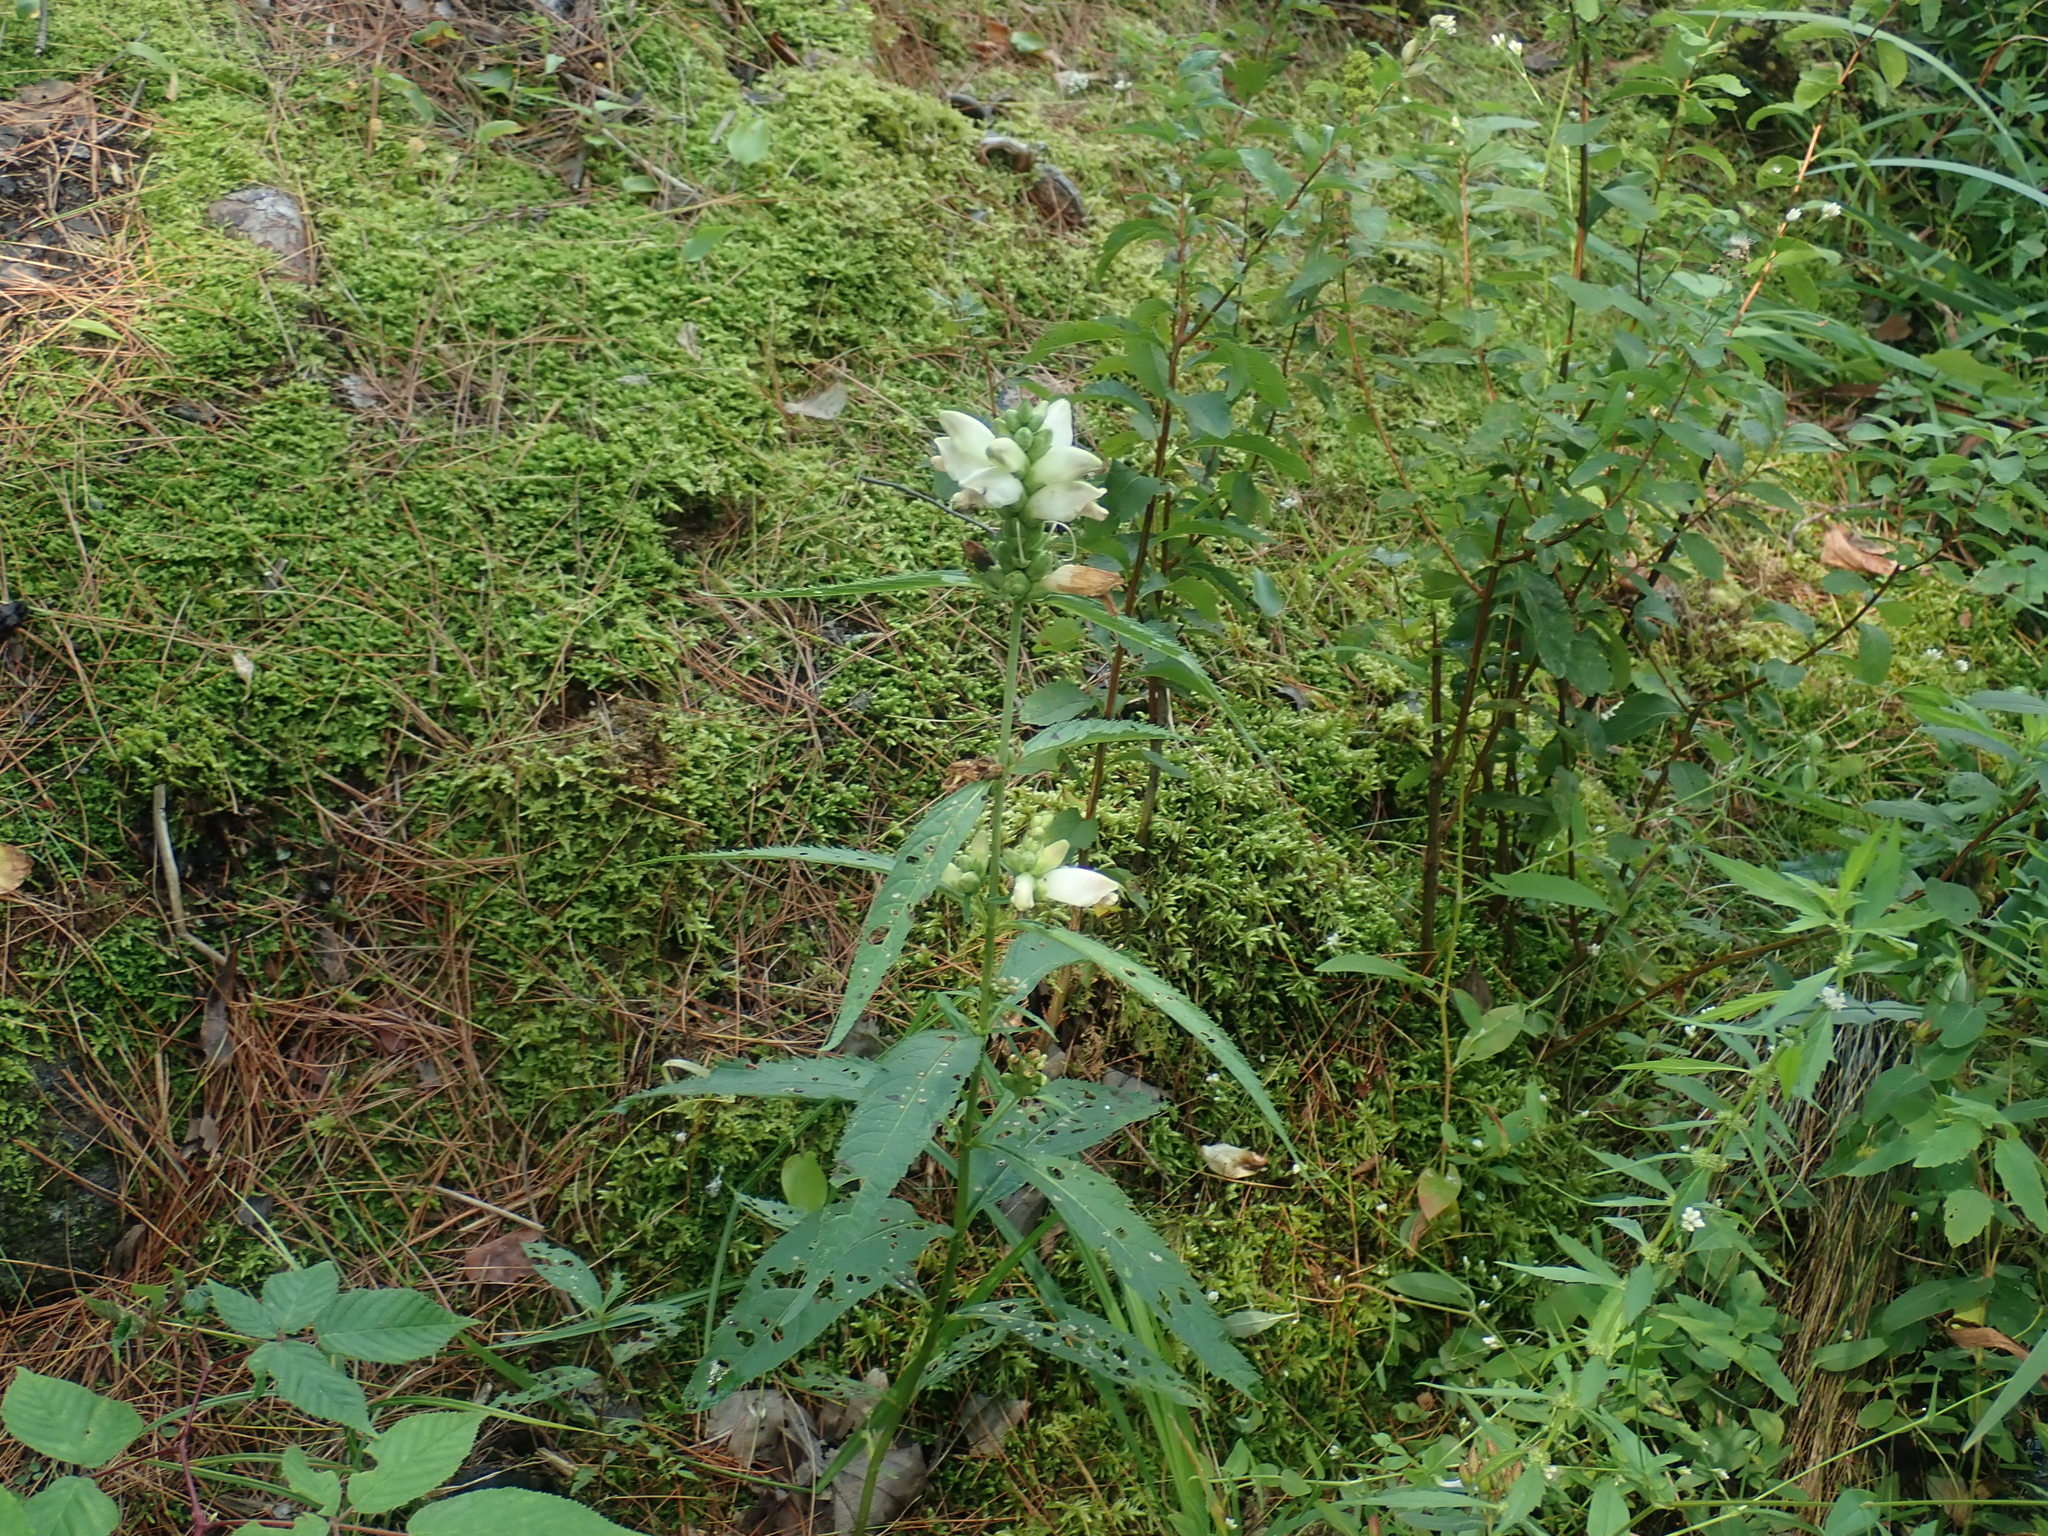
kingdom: Plantae
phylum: Tracheophyta
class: Magnoliopsida
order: Lamiales
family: Plantaginaceae
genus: Chelone
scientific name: Chelone glabra
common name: Snakehead
